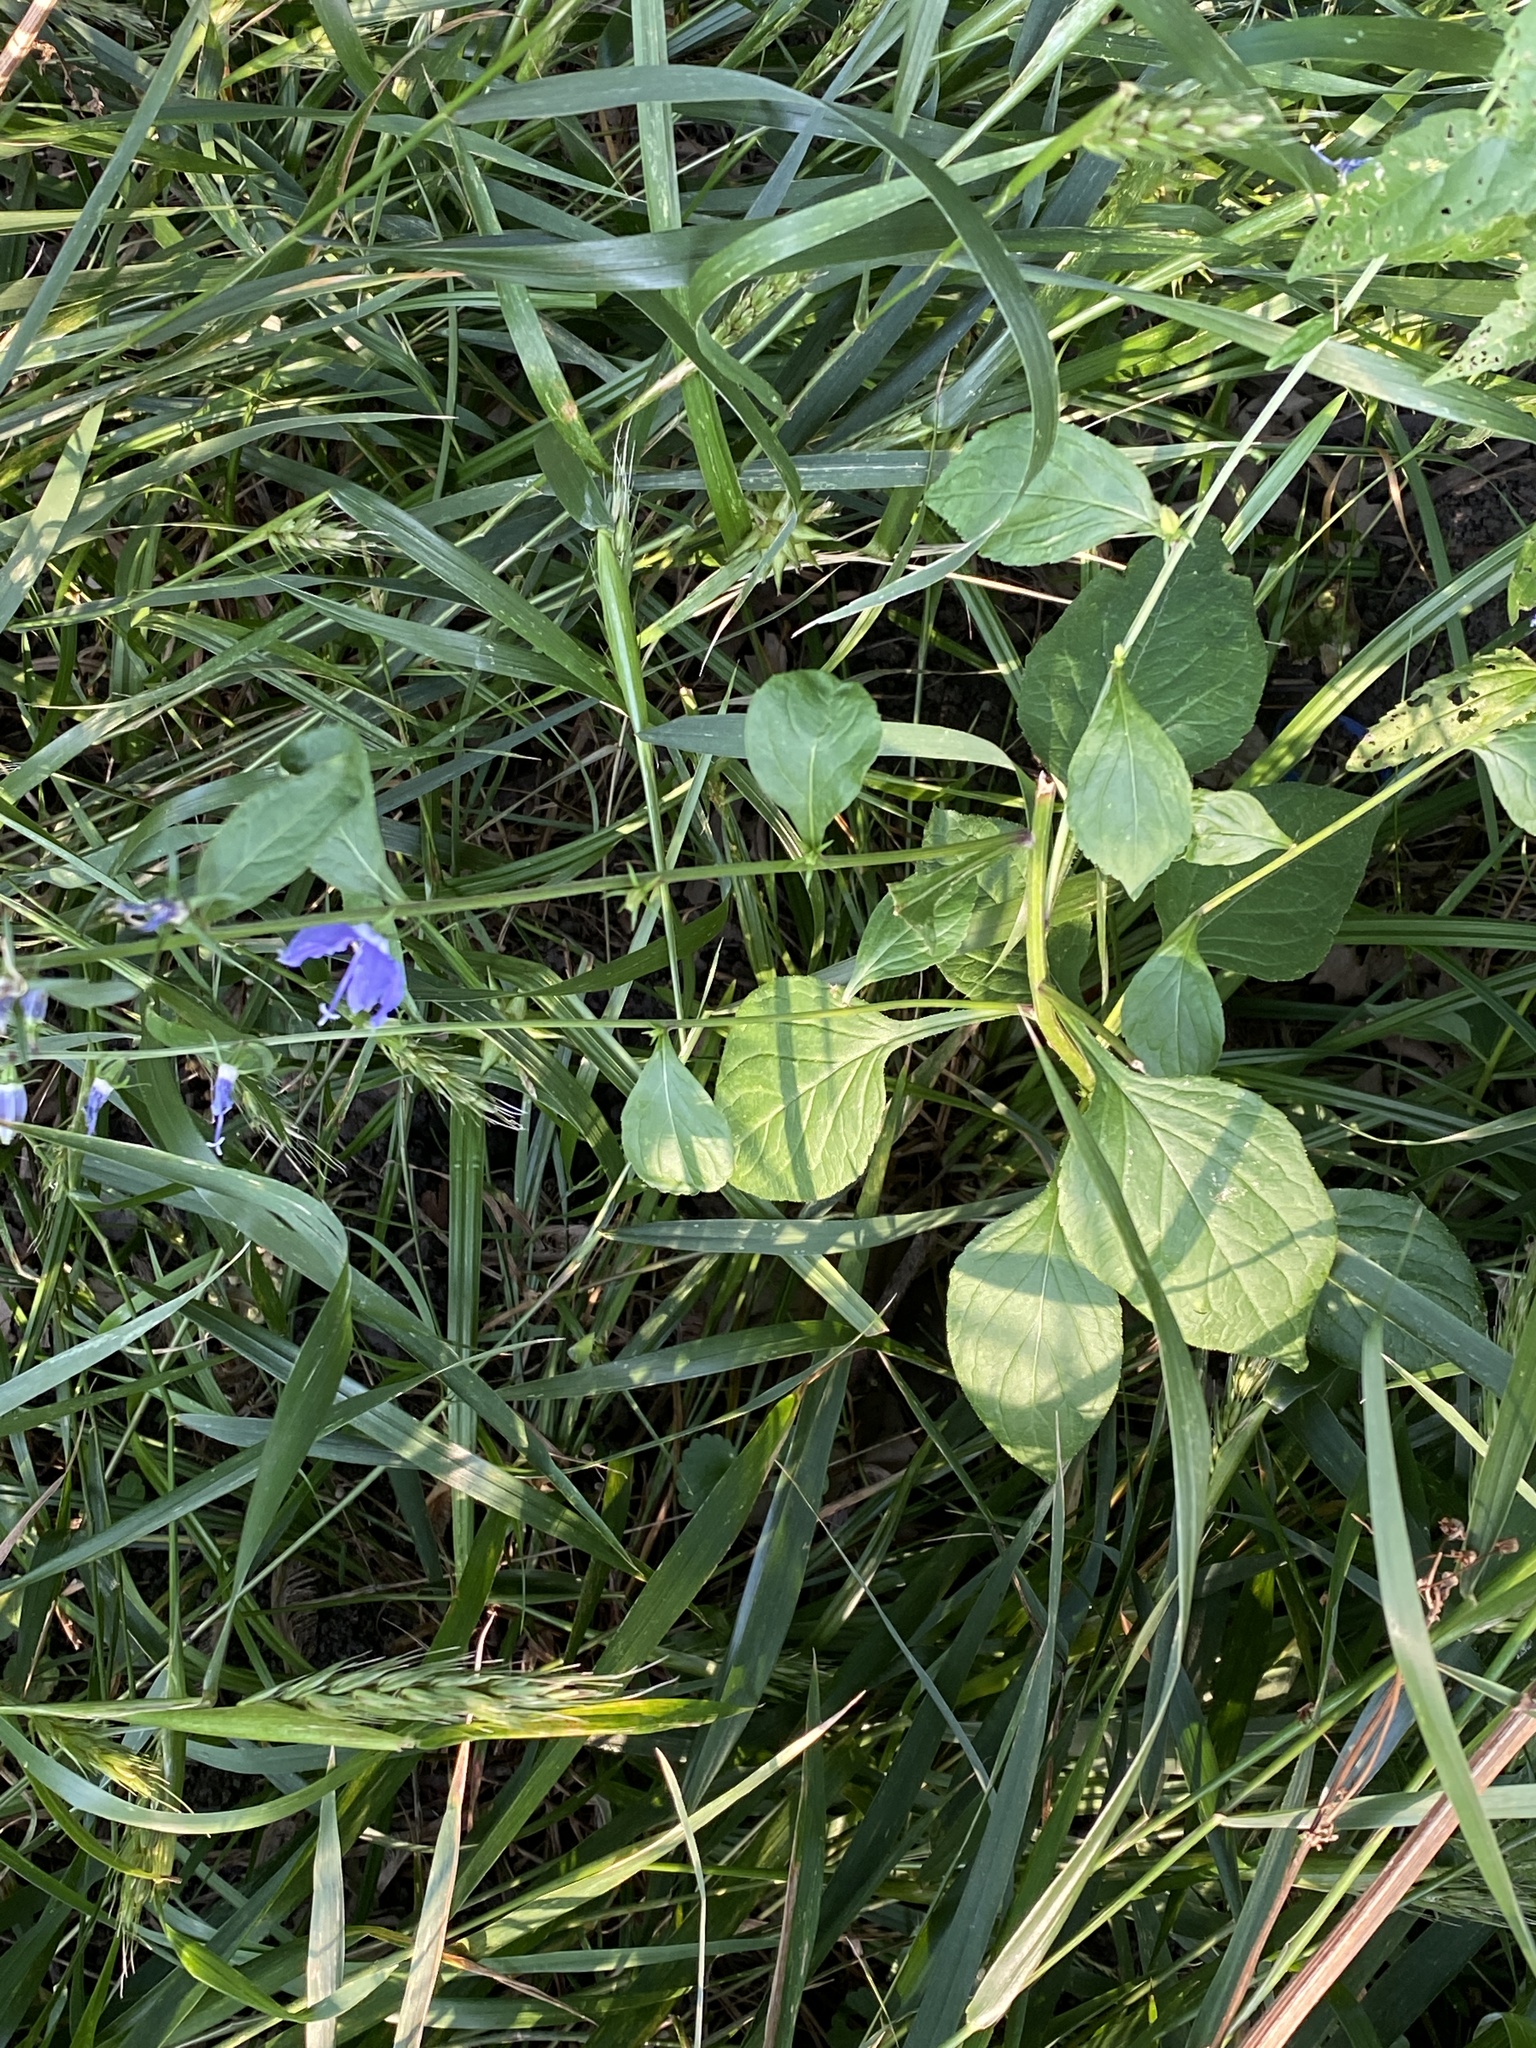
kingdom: Plantae
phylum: Tracheophyta
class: Magnoliopsida
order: Asterales
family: Campanulaceae
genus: Campanulastrum
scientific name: Campanulastrum americanum
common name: American bellflower
